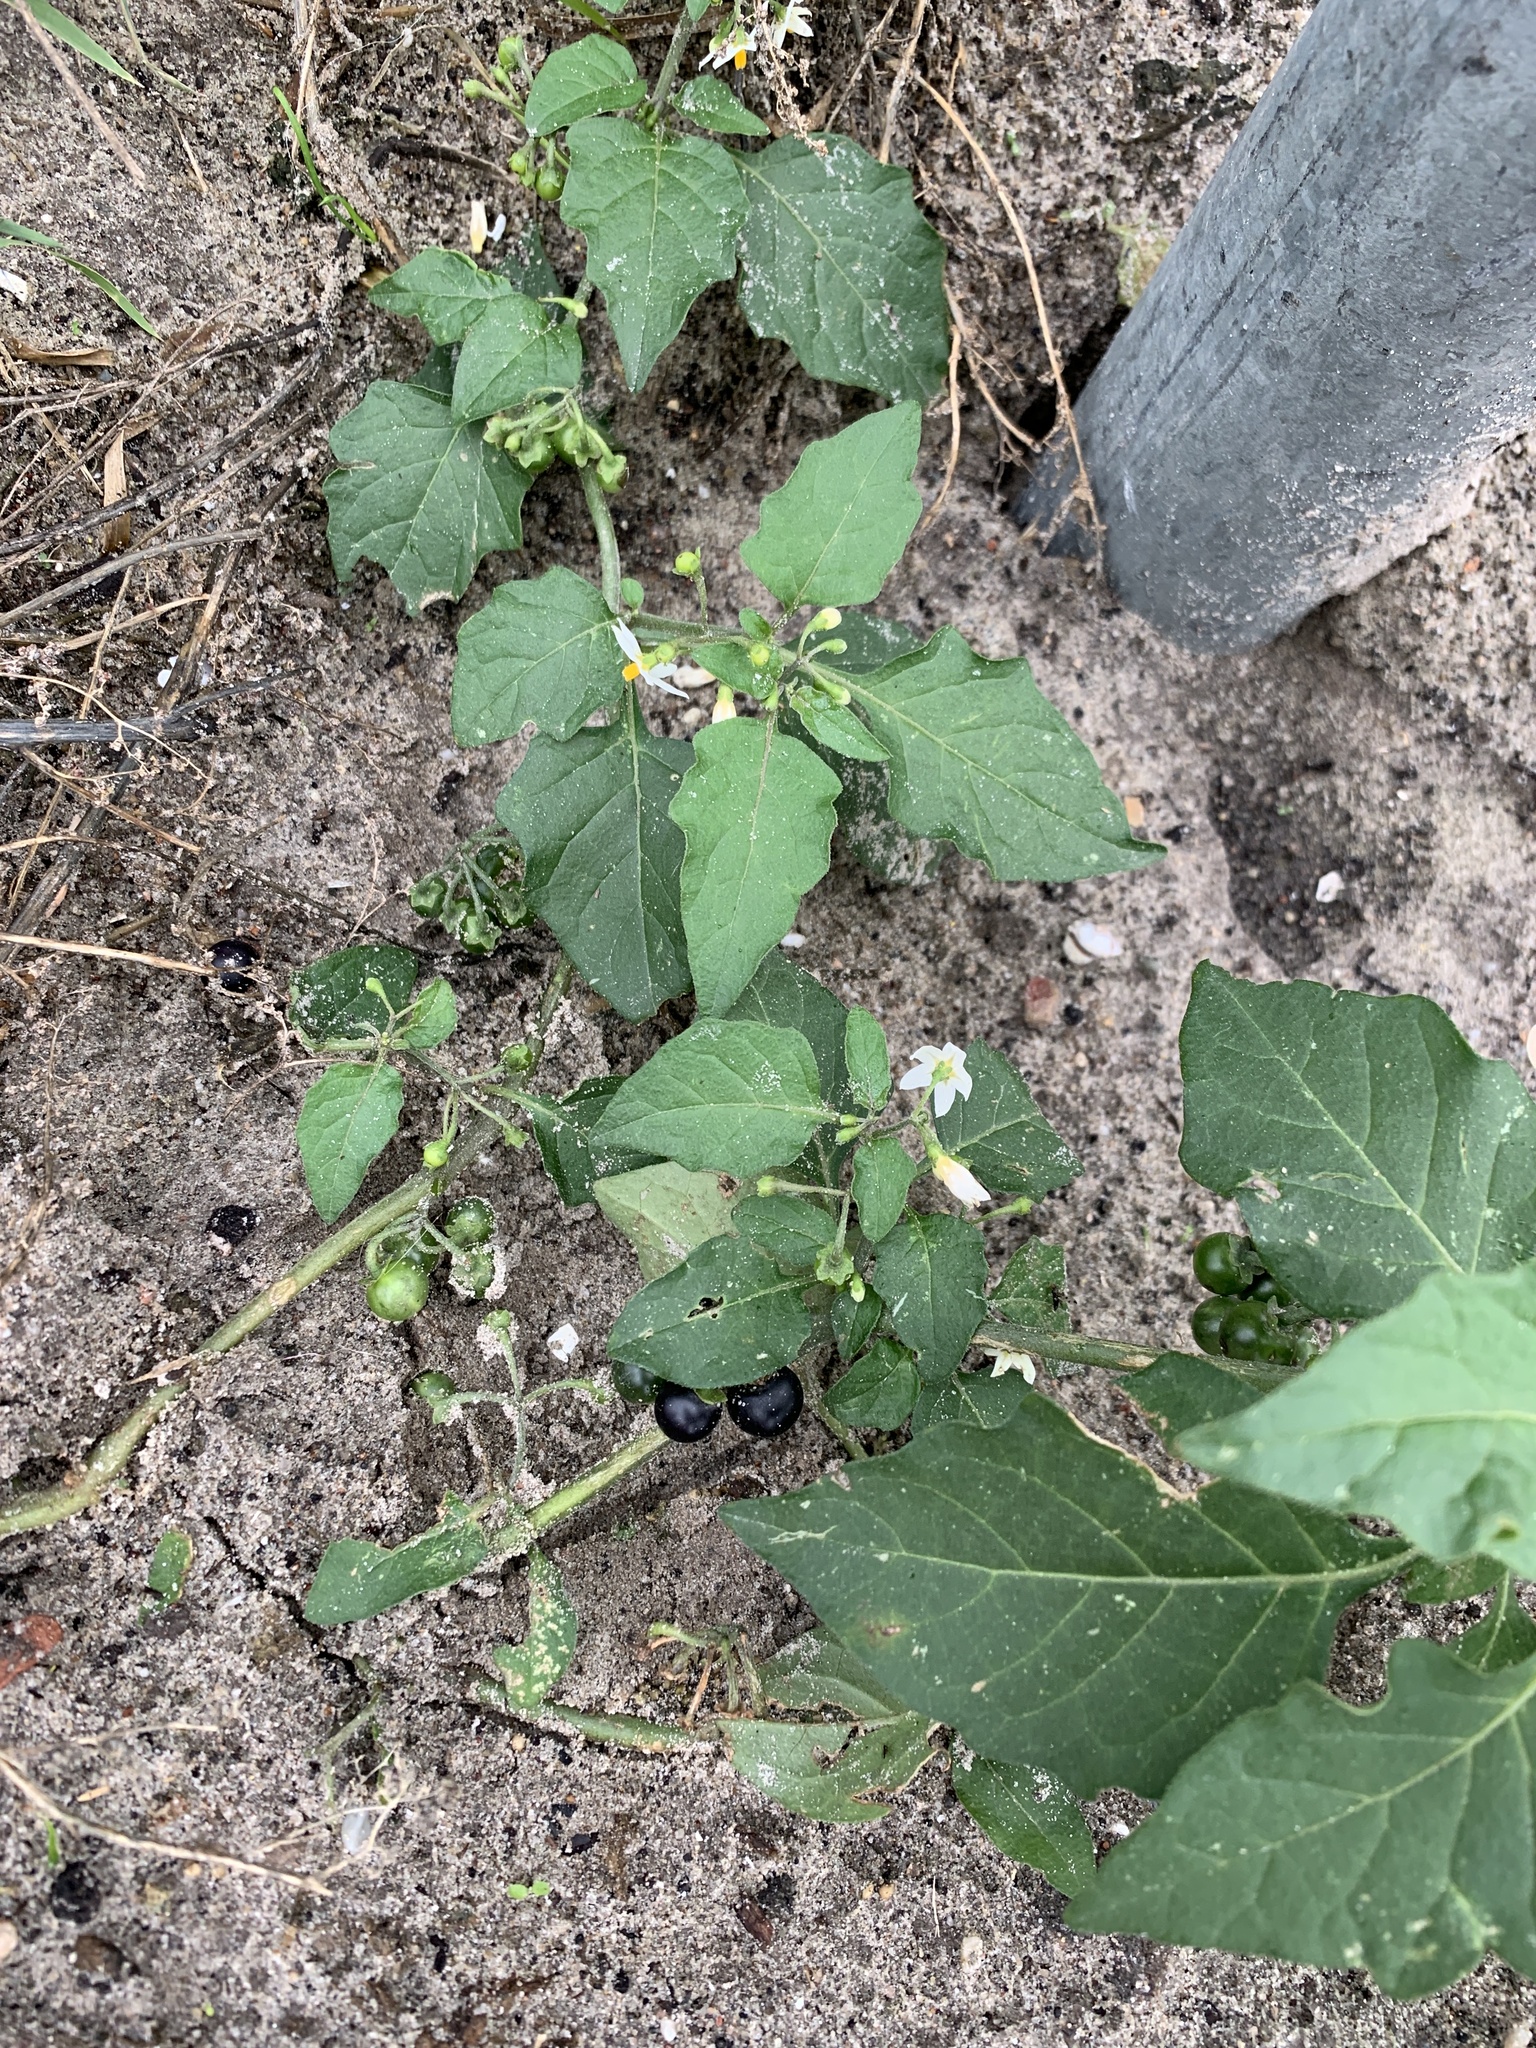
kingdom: Plantae
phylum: Tracheophyta
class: Magnoliopsida
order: Solanales
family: Solanaceae
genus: Solanum
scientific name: Solanum nigrum
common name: Black nightshade
